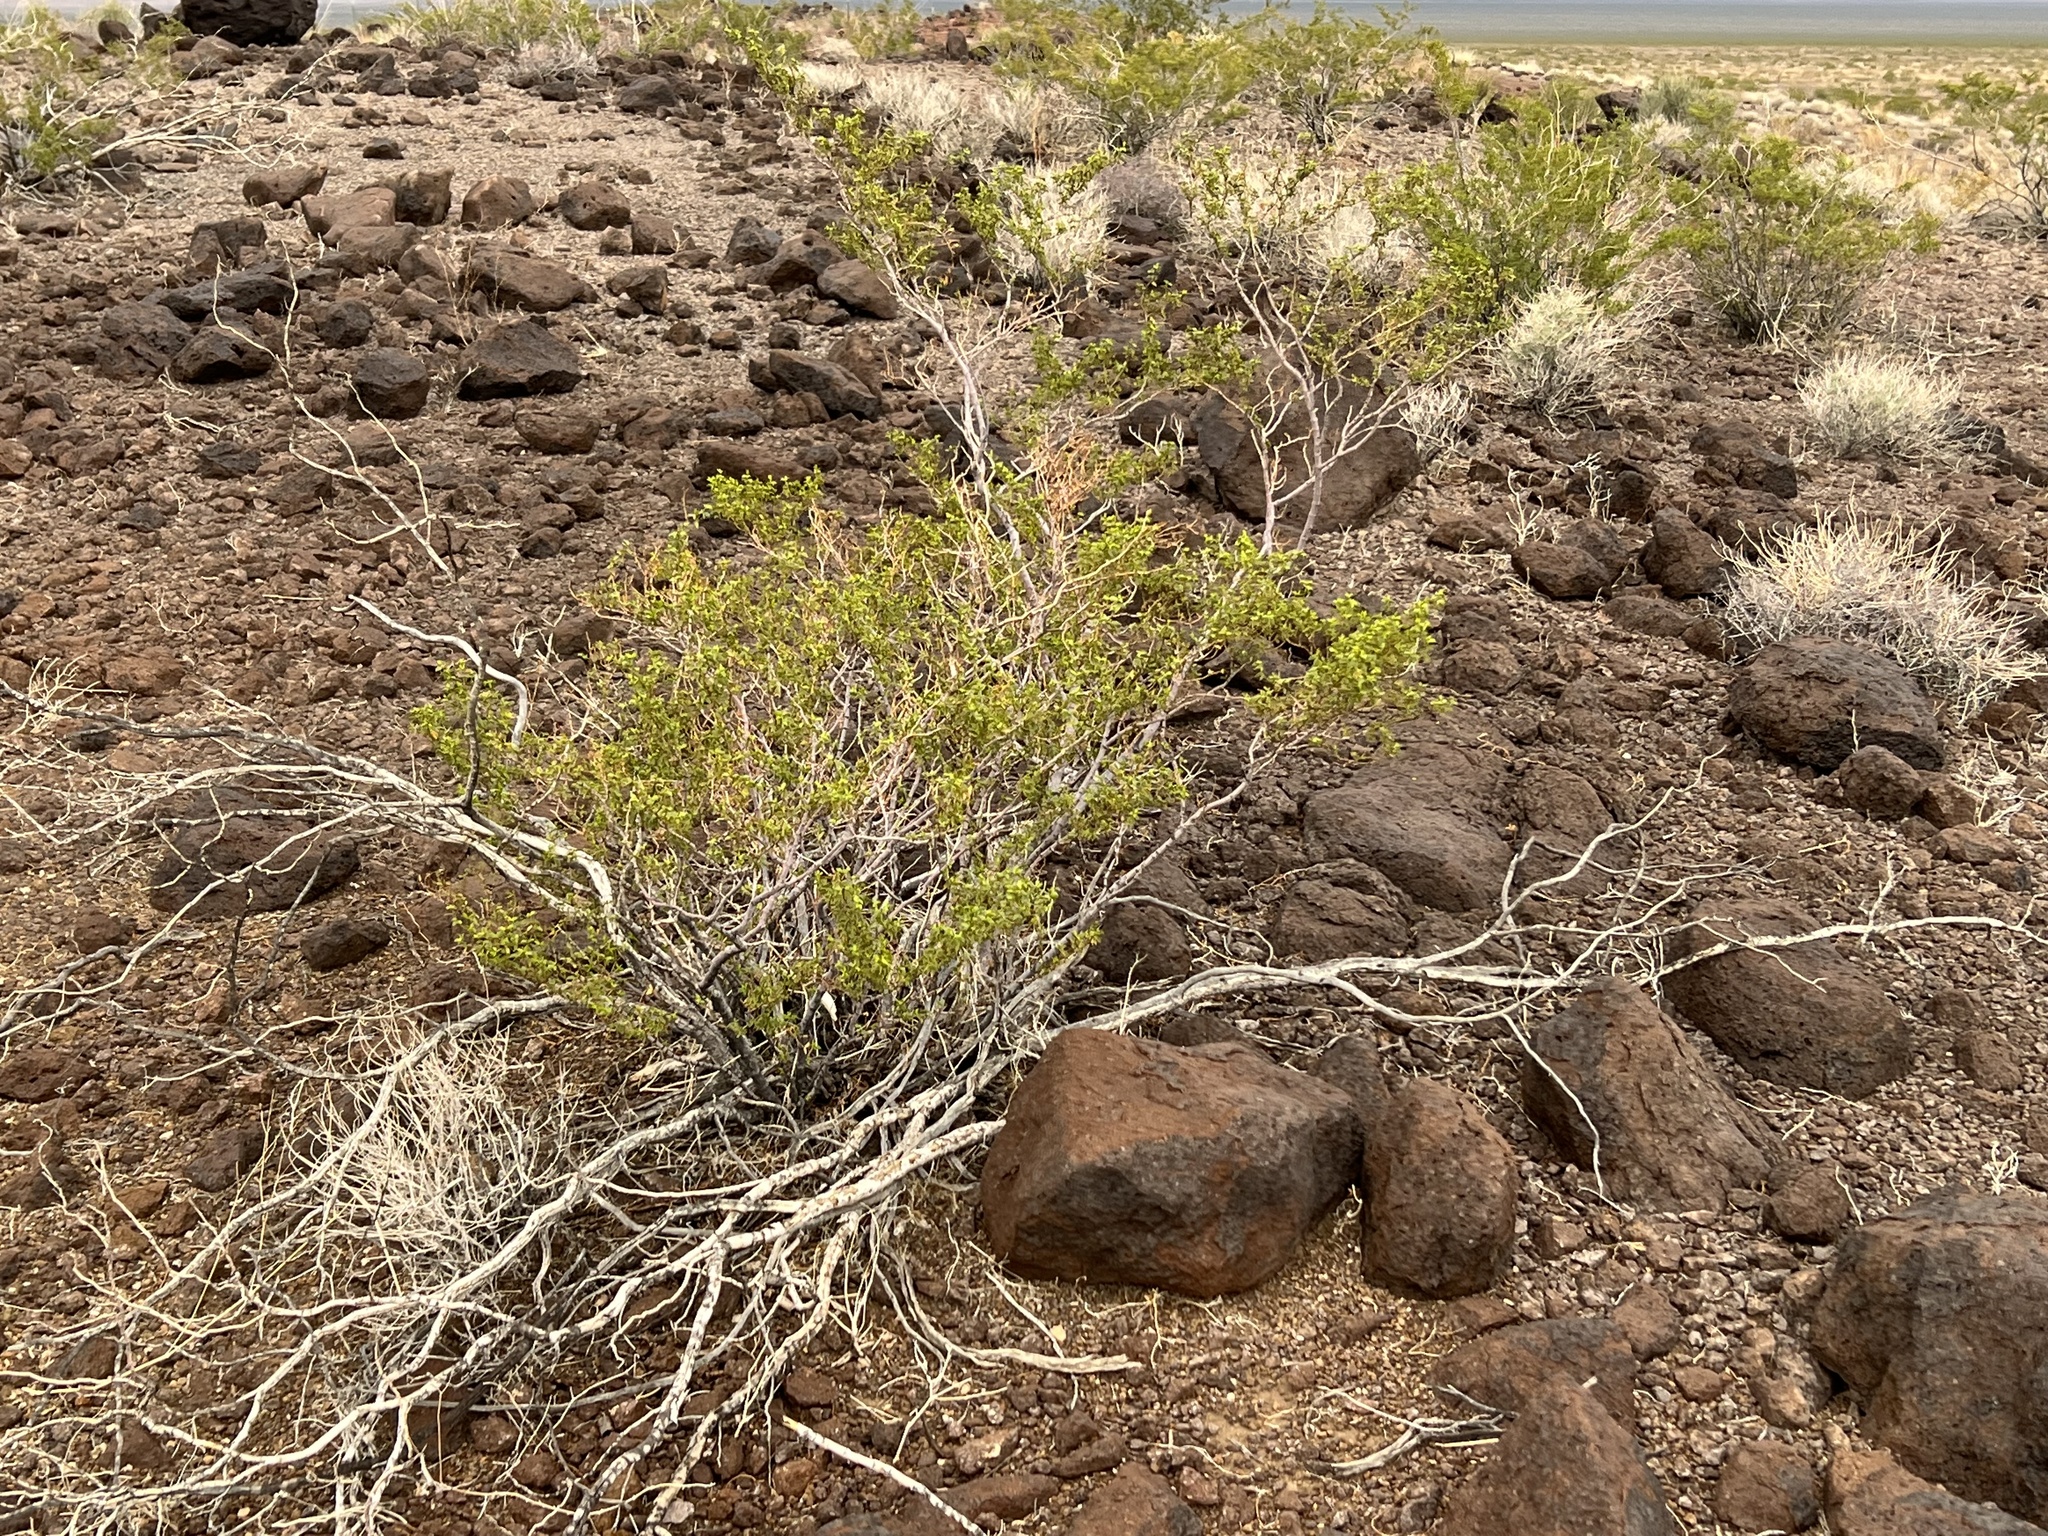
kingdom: Plantae
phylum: Tracheophyta
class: Magnoliopsida
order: Zygophyllales
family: Zygophyllaceae
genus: Larrea
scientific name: Larrea tridentata
